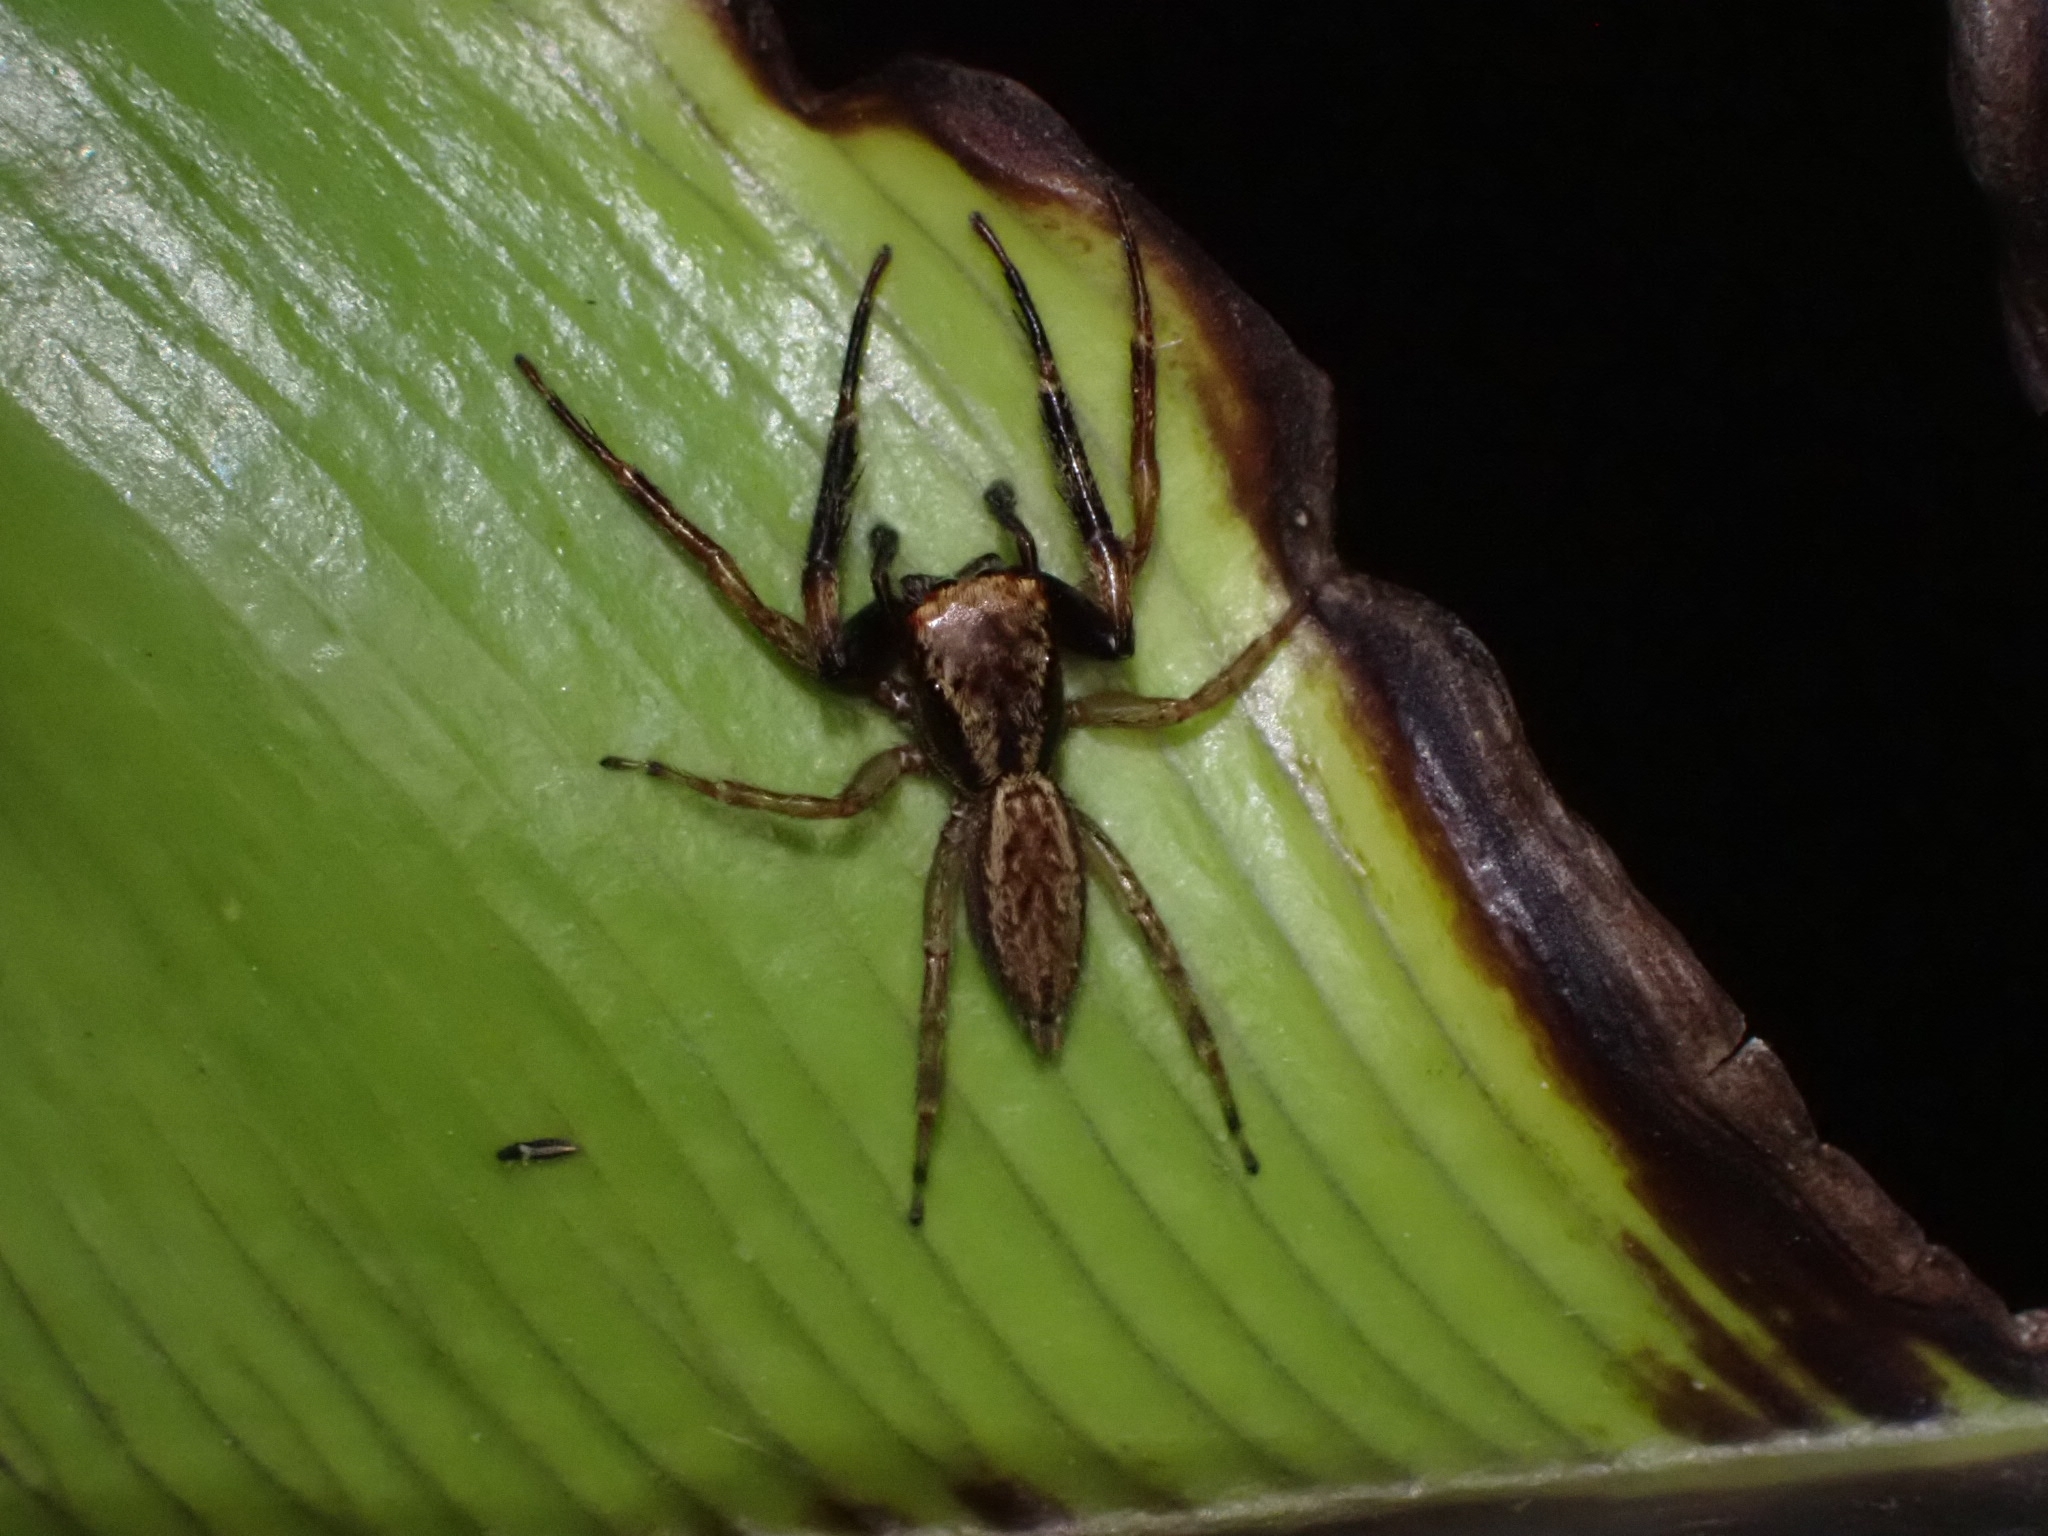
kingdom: Animalia
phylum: Arthropoda
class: Arachnida
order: Araneae
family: Salticidae
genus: Trite
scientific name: Trite auricoma
